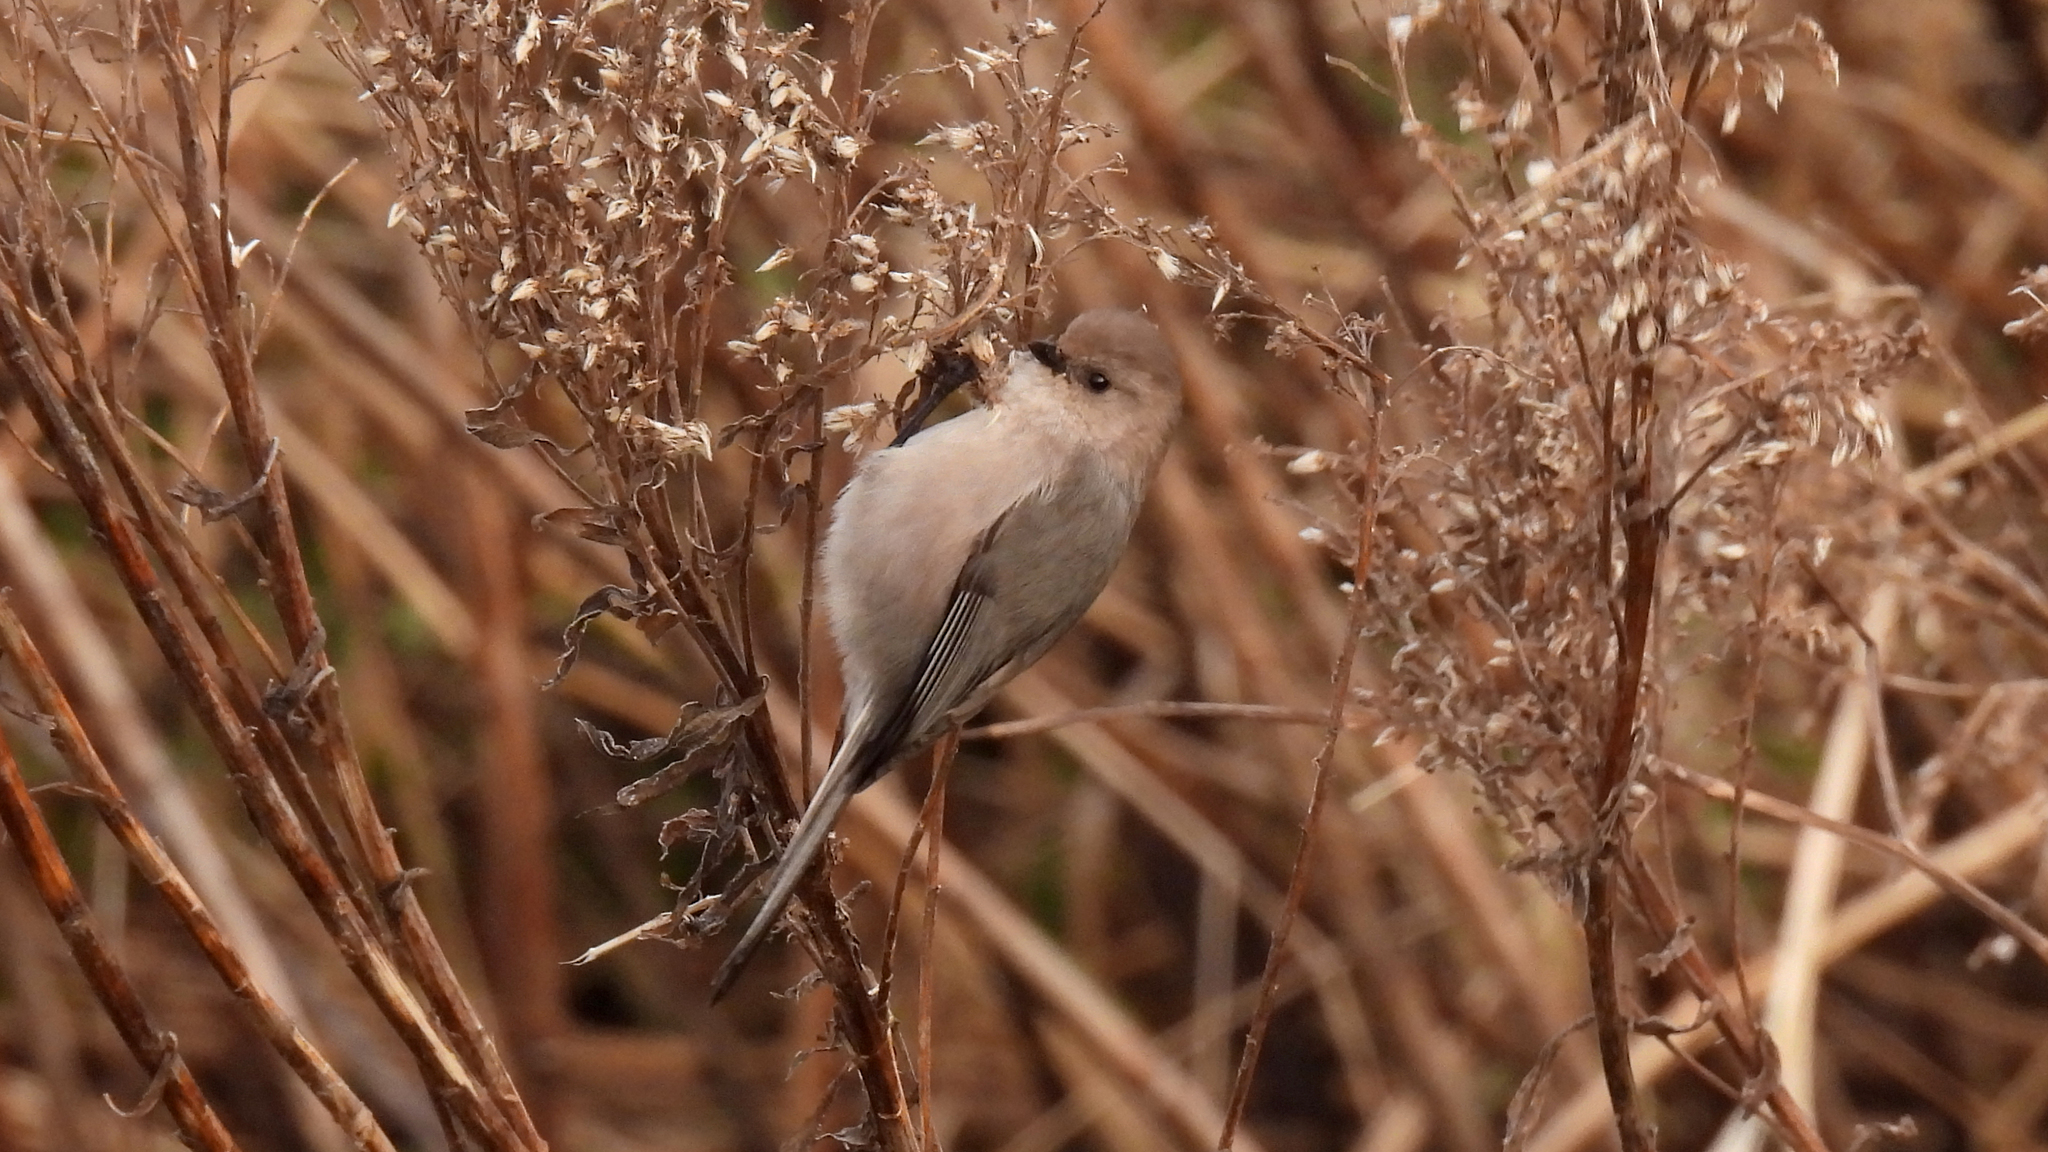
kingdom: Animalia
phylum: Chordata
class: Aves
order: Passeriformes
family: Aegithalidae
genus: Psaltriparus
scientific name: Psaltriparus minimus
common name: American bushtit
